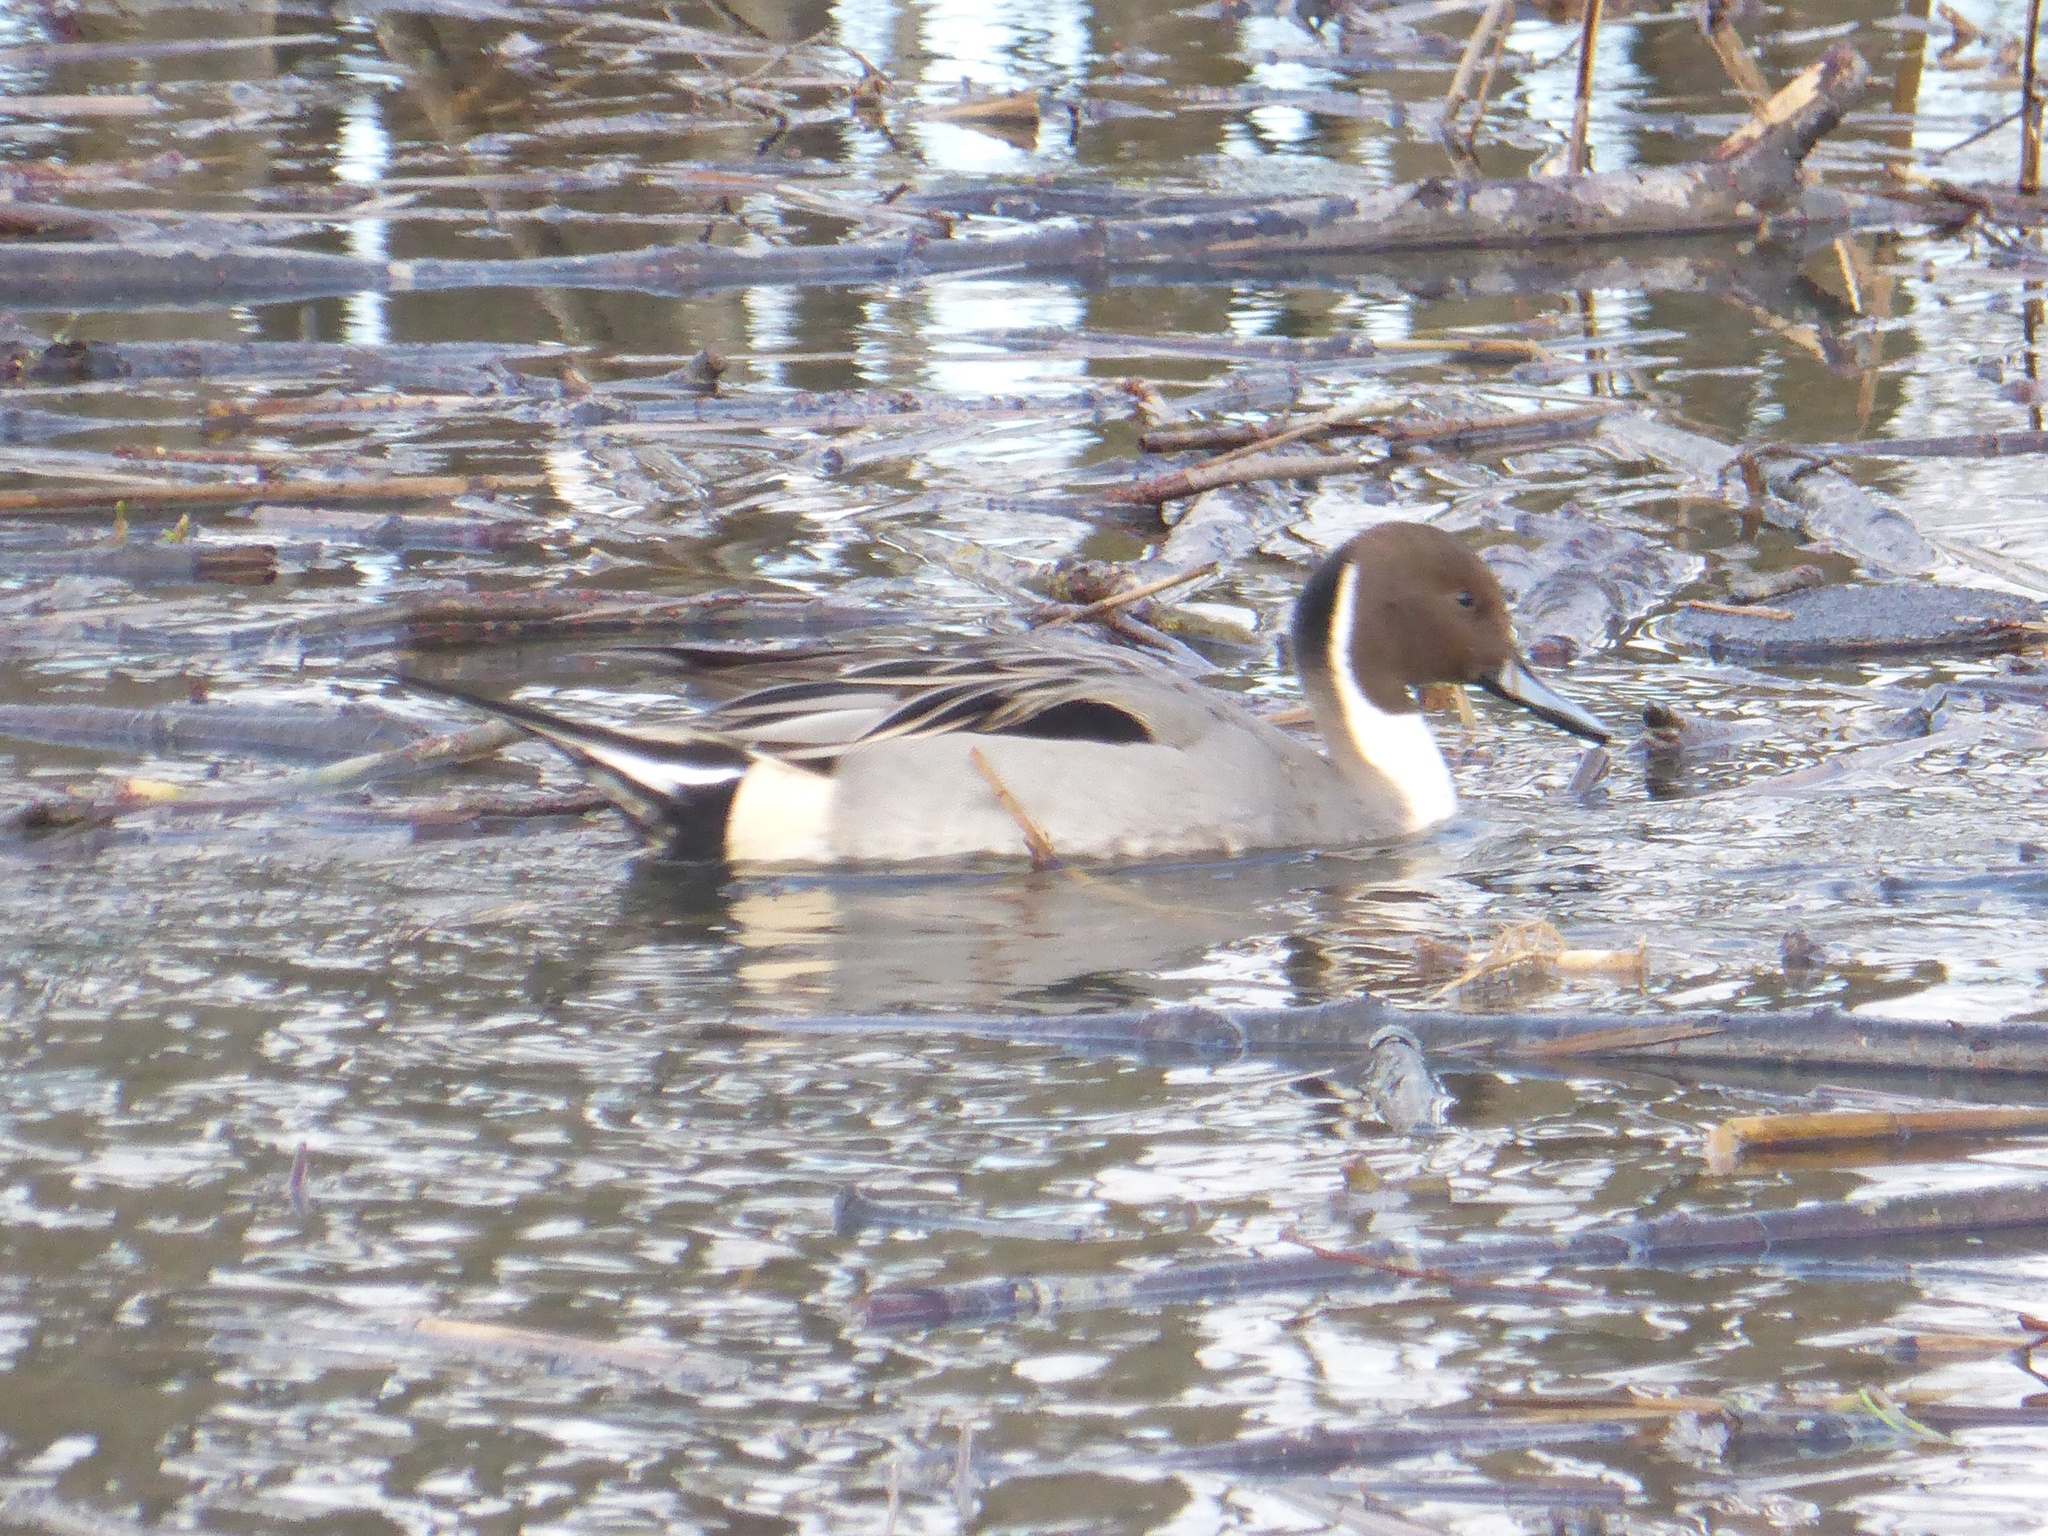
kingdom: Animalia
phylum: Chordata
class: Aves
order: Anseriformes
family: Anatidae
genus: Anas
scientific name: Anas acuta
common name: Northern pintail
